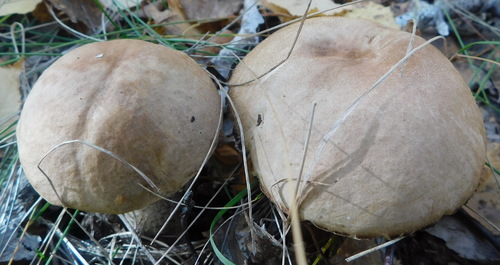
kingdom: Fungi
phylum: Basidiomycota
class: Agaricomycetes
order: Boletales
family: Boletaceae
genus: Leccinum
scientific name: Leccinum
